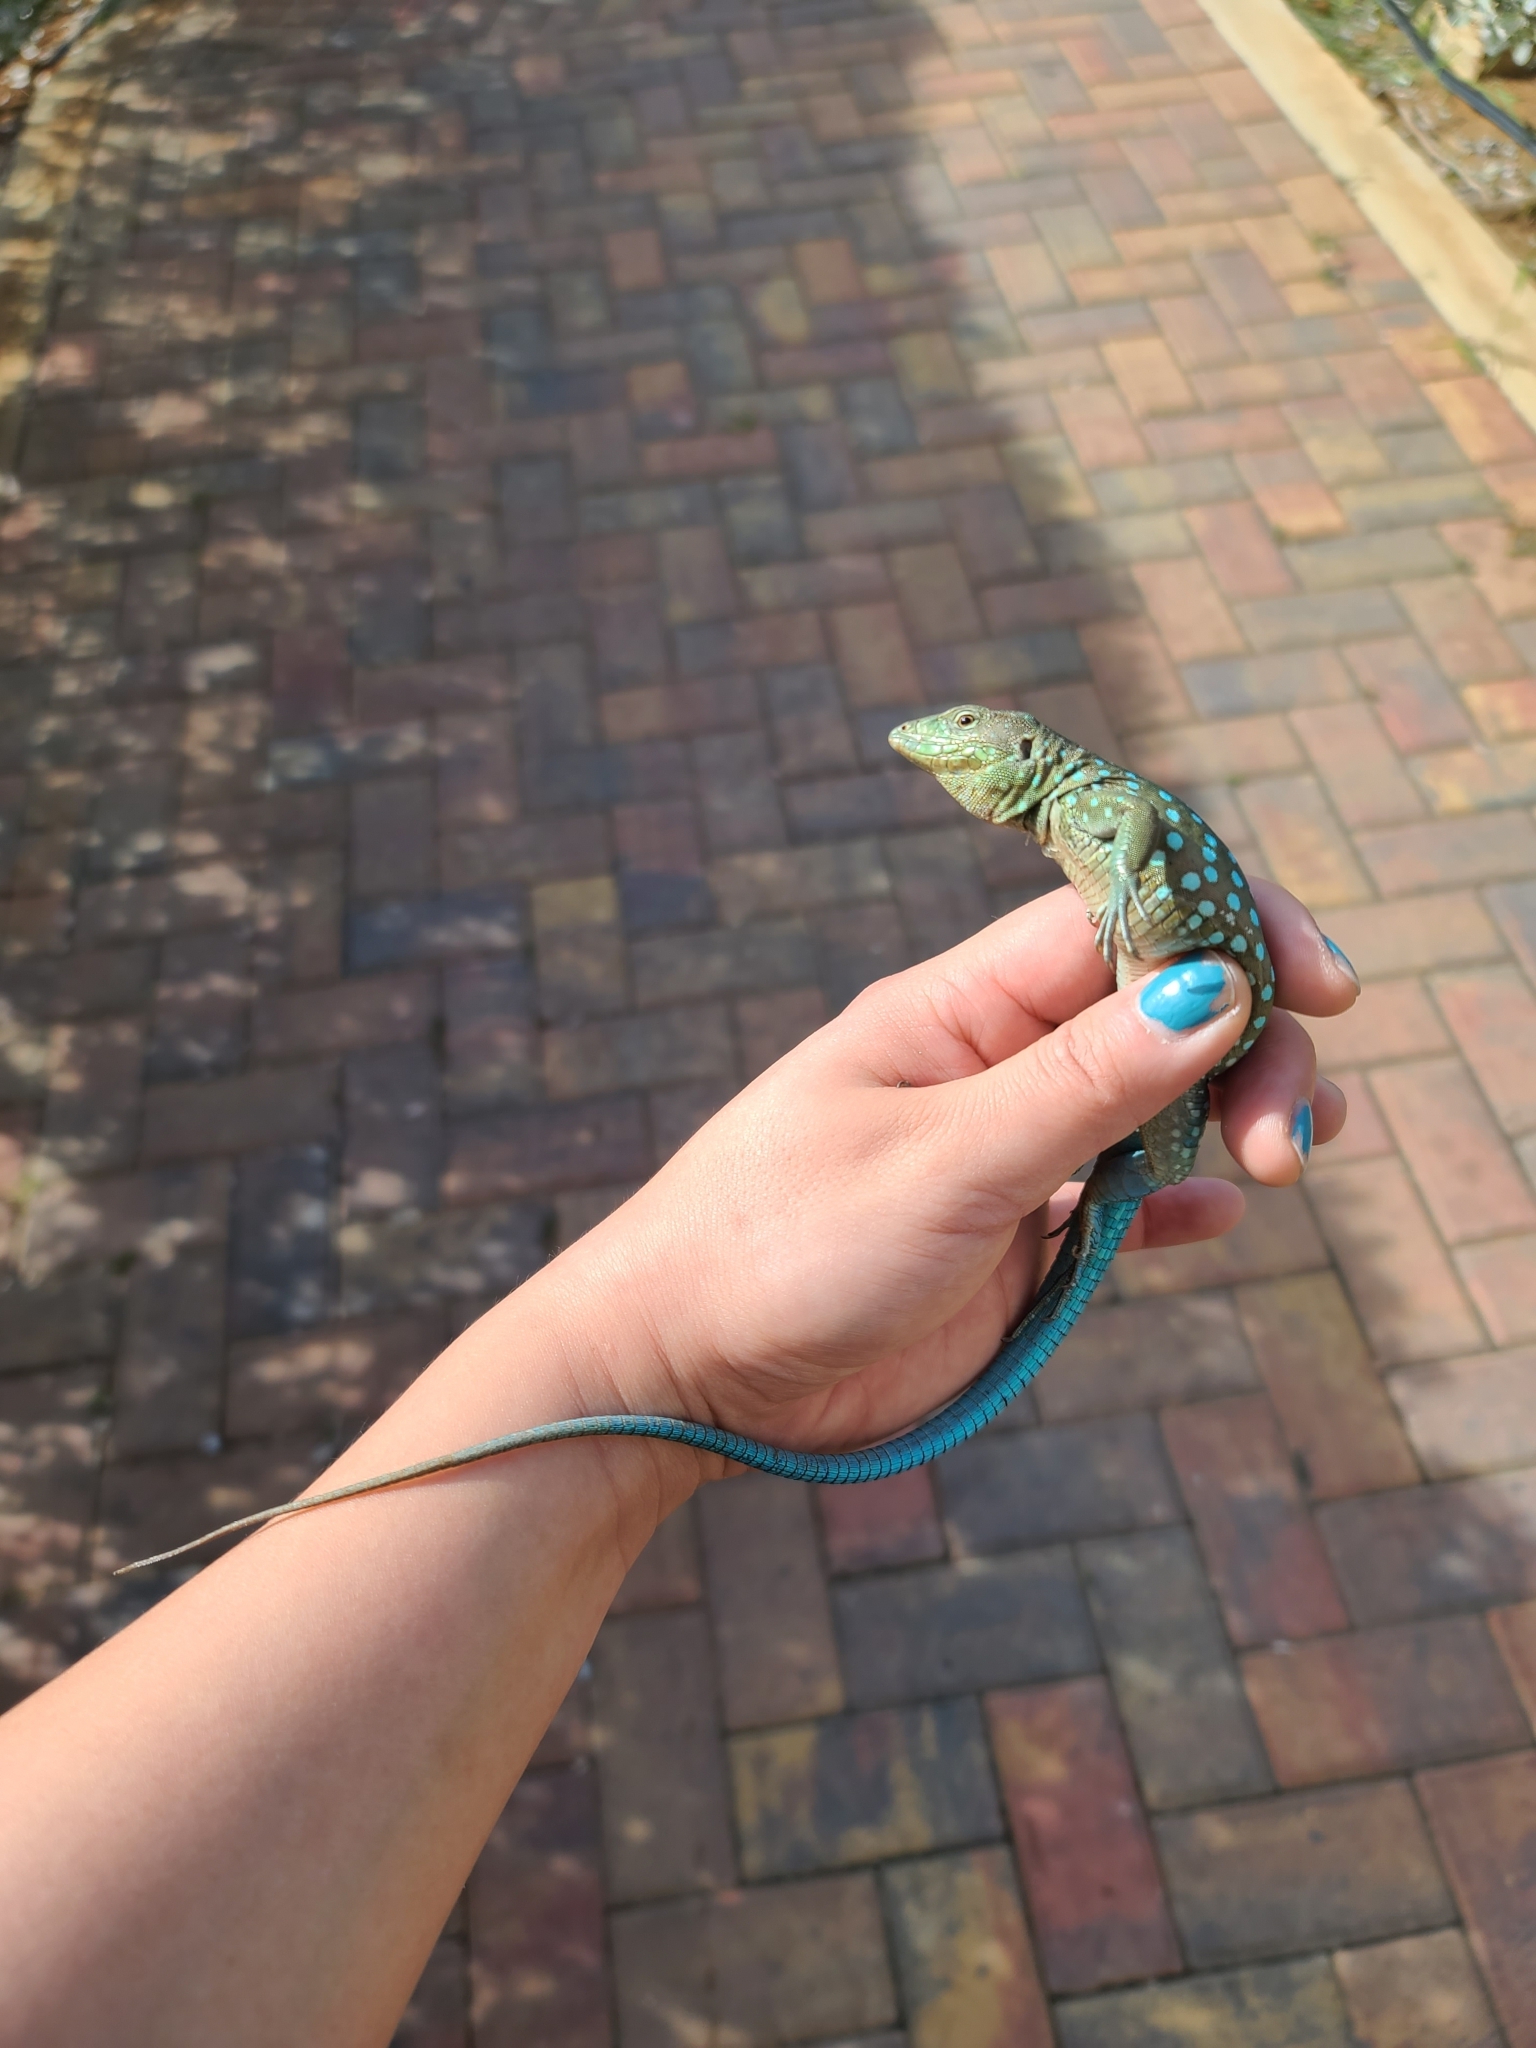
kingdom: Animalia
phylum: Chordata
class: Squamata
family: Teiidae
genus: Cnemidophorus
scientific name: Cnemidophorus arubensis
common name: Aruba whiptail
